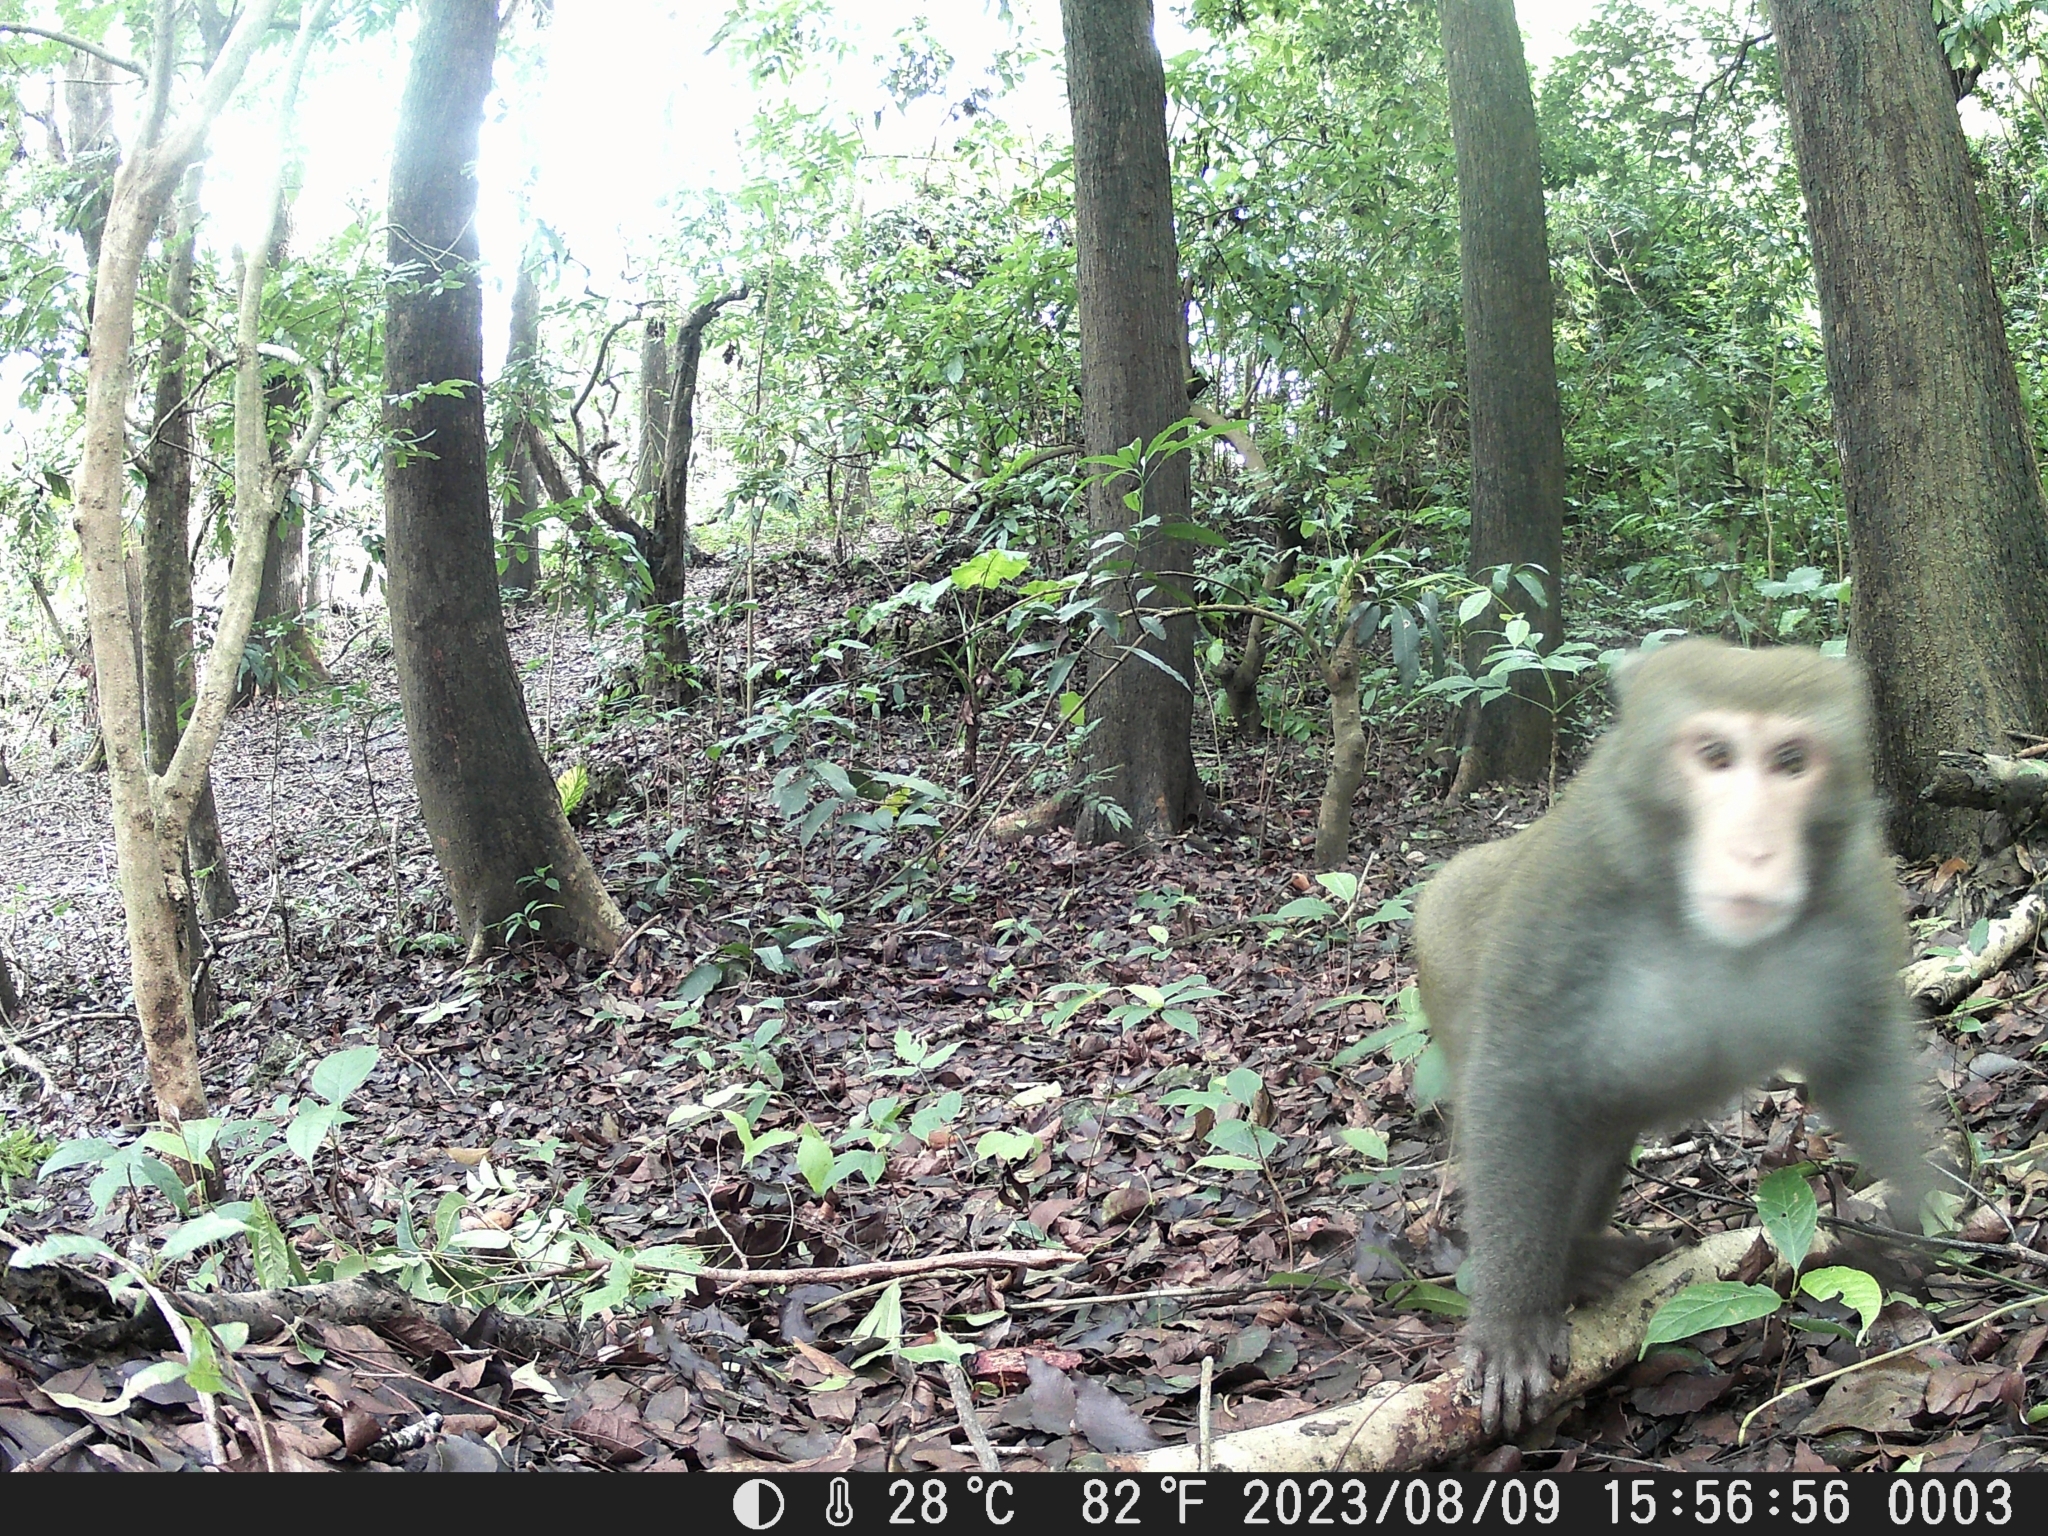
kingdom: Animalia
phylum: Chordata
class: Mammalia
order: Primates
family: Cercopithecidae
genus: Macaca
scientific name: Macaca cyclopis
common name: Formosan rock macaque
